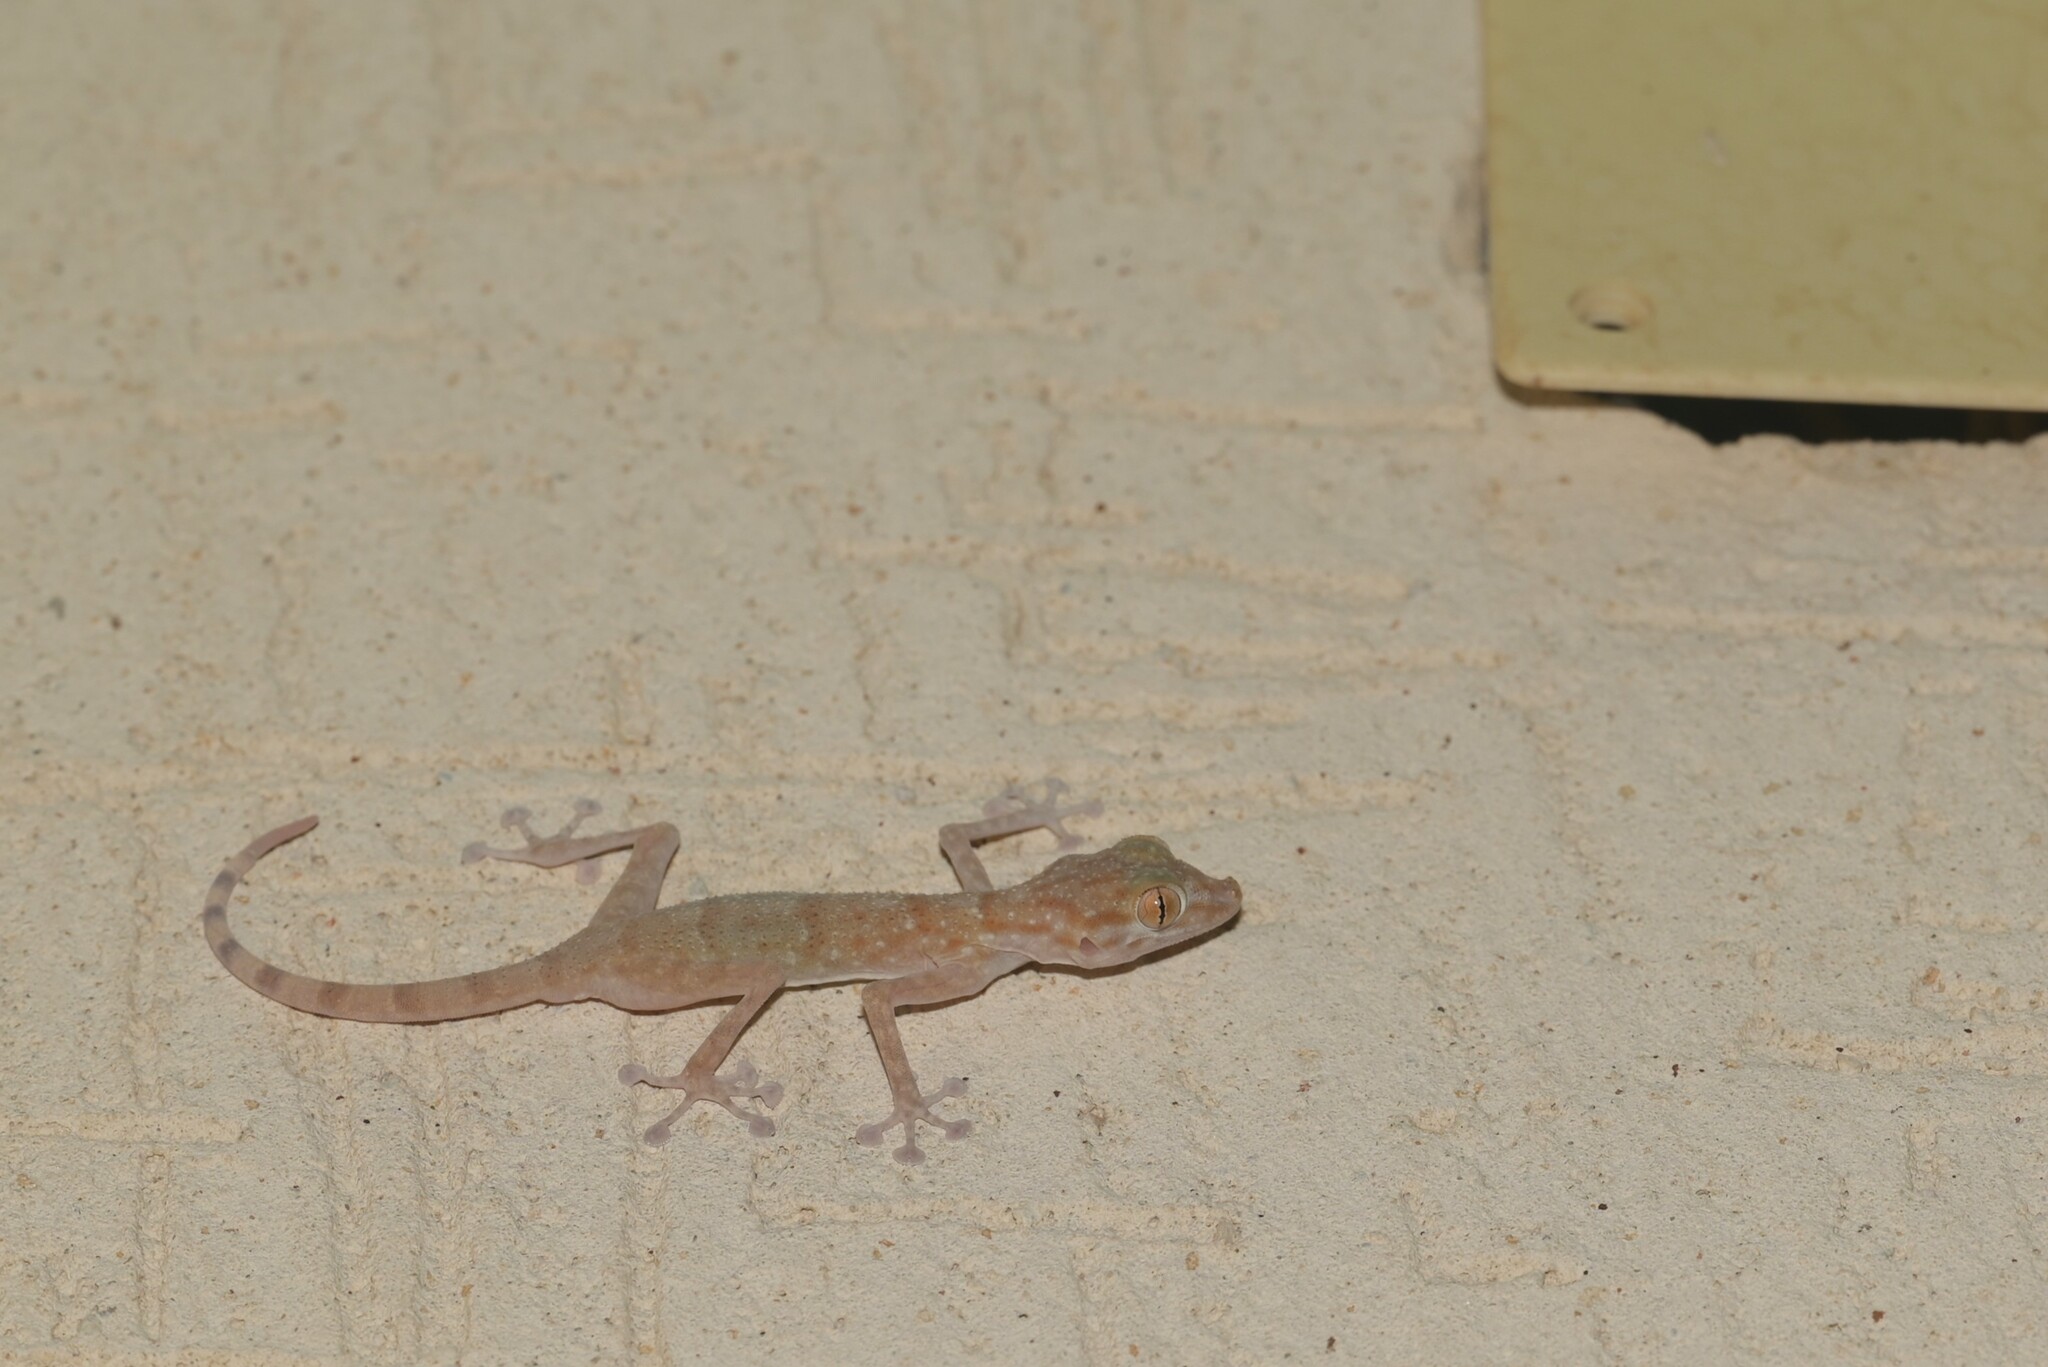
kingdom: Animalia
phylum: Chordata
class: Squamata
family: Phyllodactylidae
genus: Ptyodactylus
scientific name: Ptyodactylus hasselquistii
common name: Hasselquist’s fan-footed gecko
